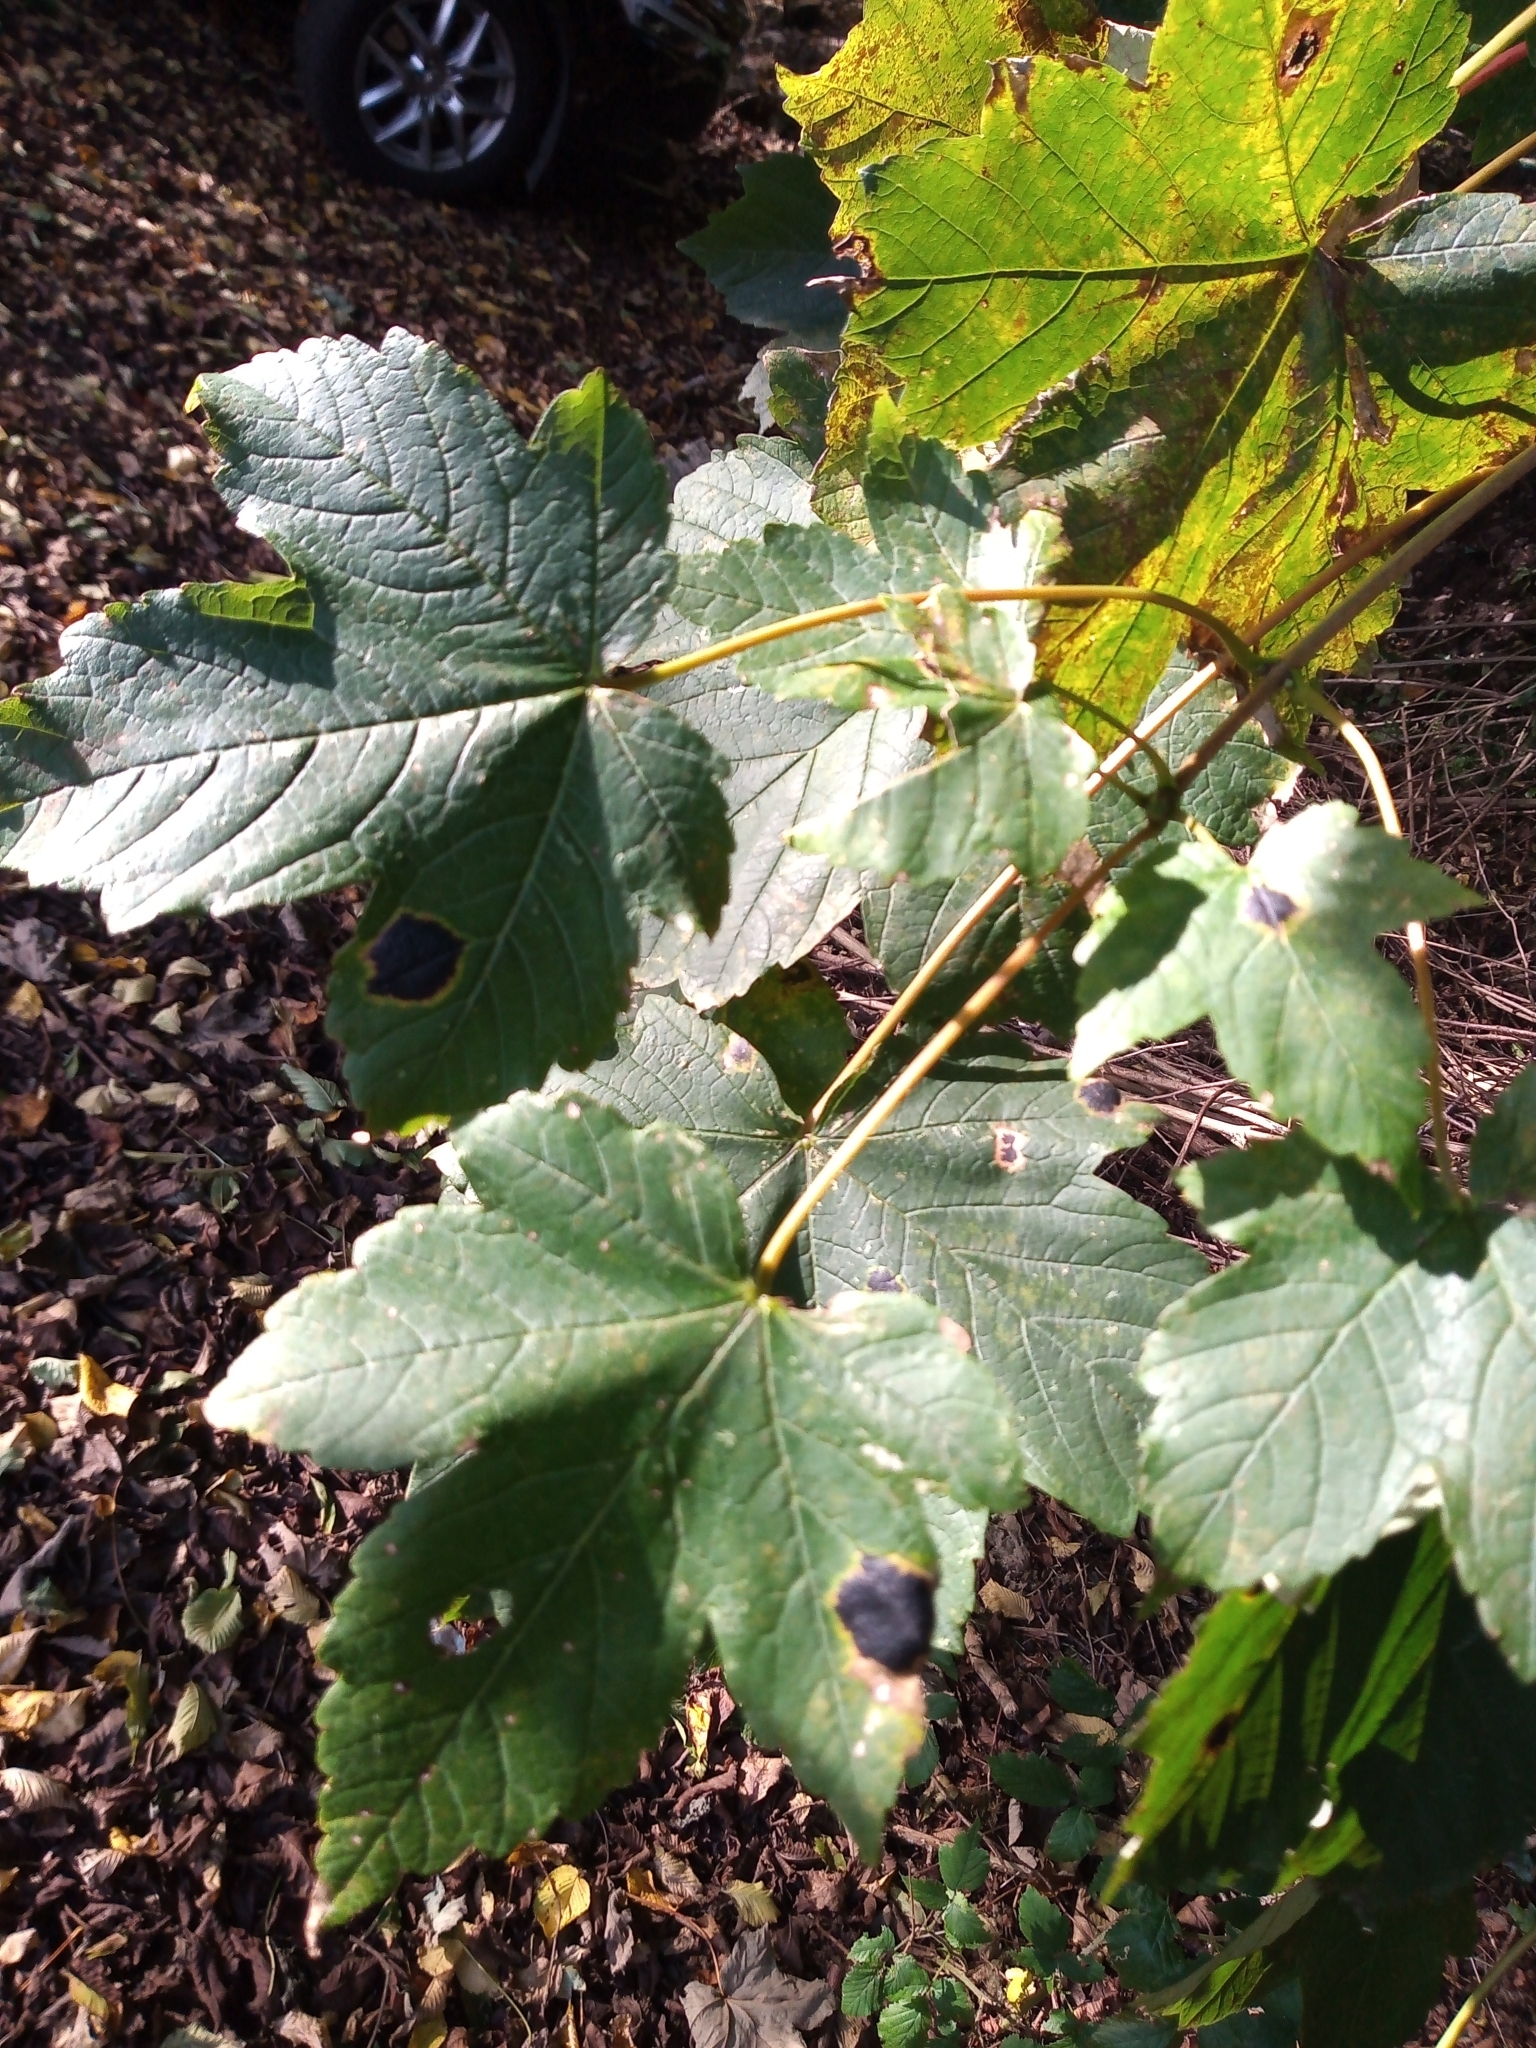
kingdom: Fungi
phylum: Ascomycota
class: Leotiomycetes
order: Rhytismatales
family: Rhytismataceae
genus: Rhytisma
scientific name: Rhytisma acerinum
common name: European tar spot
